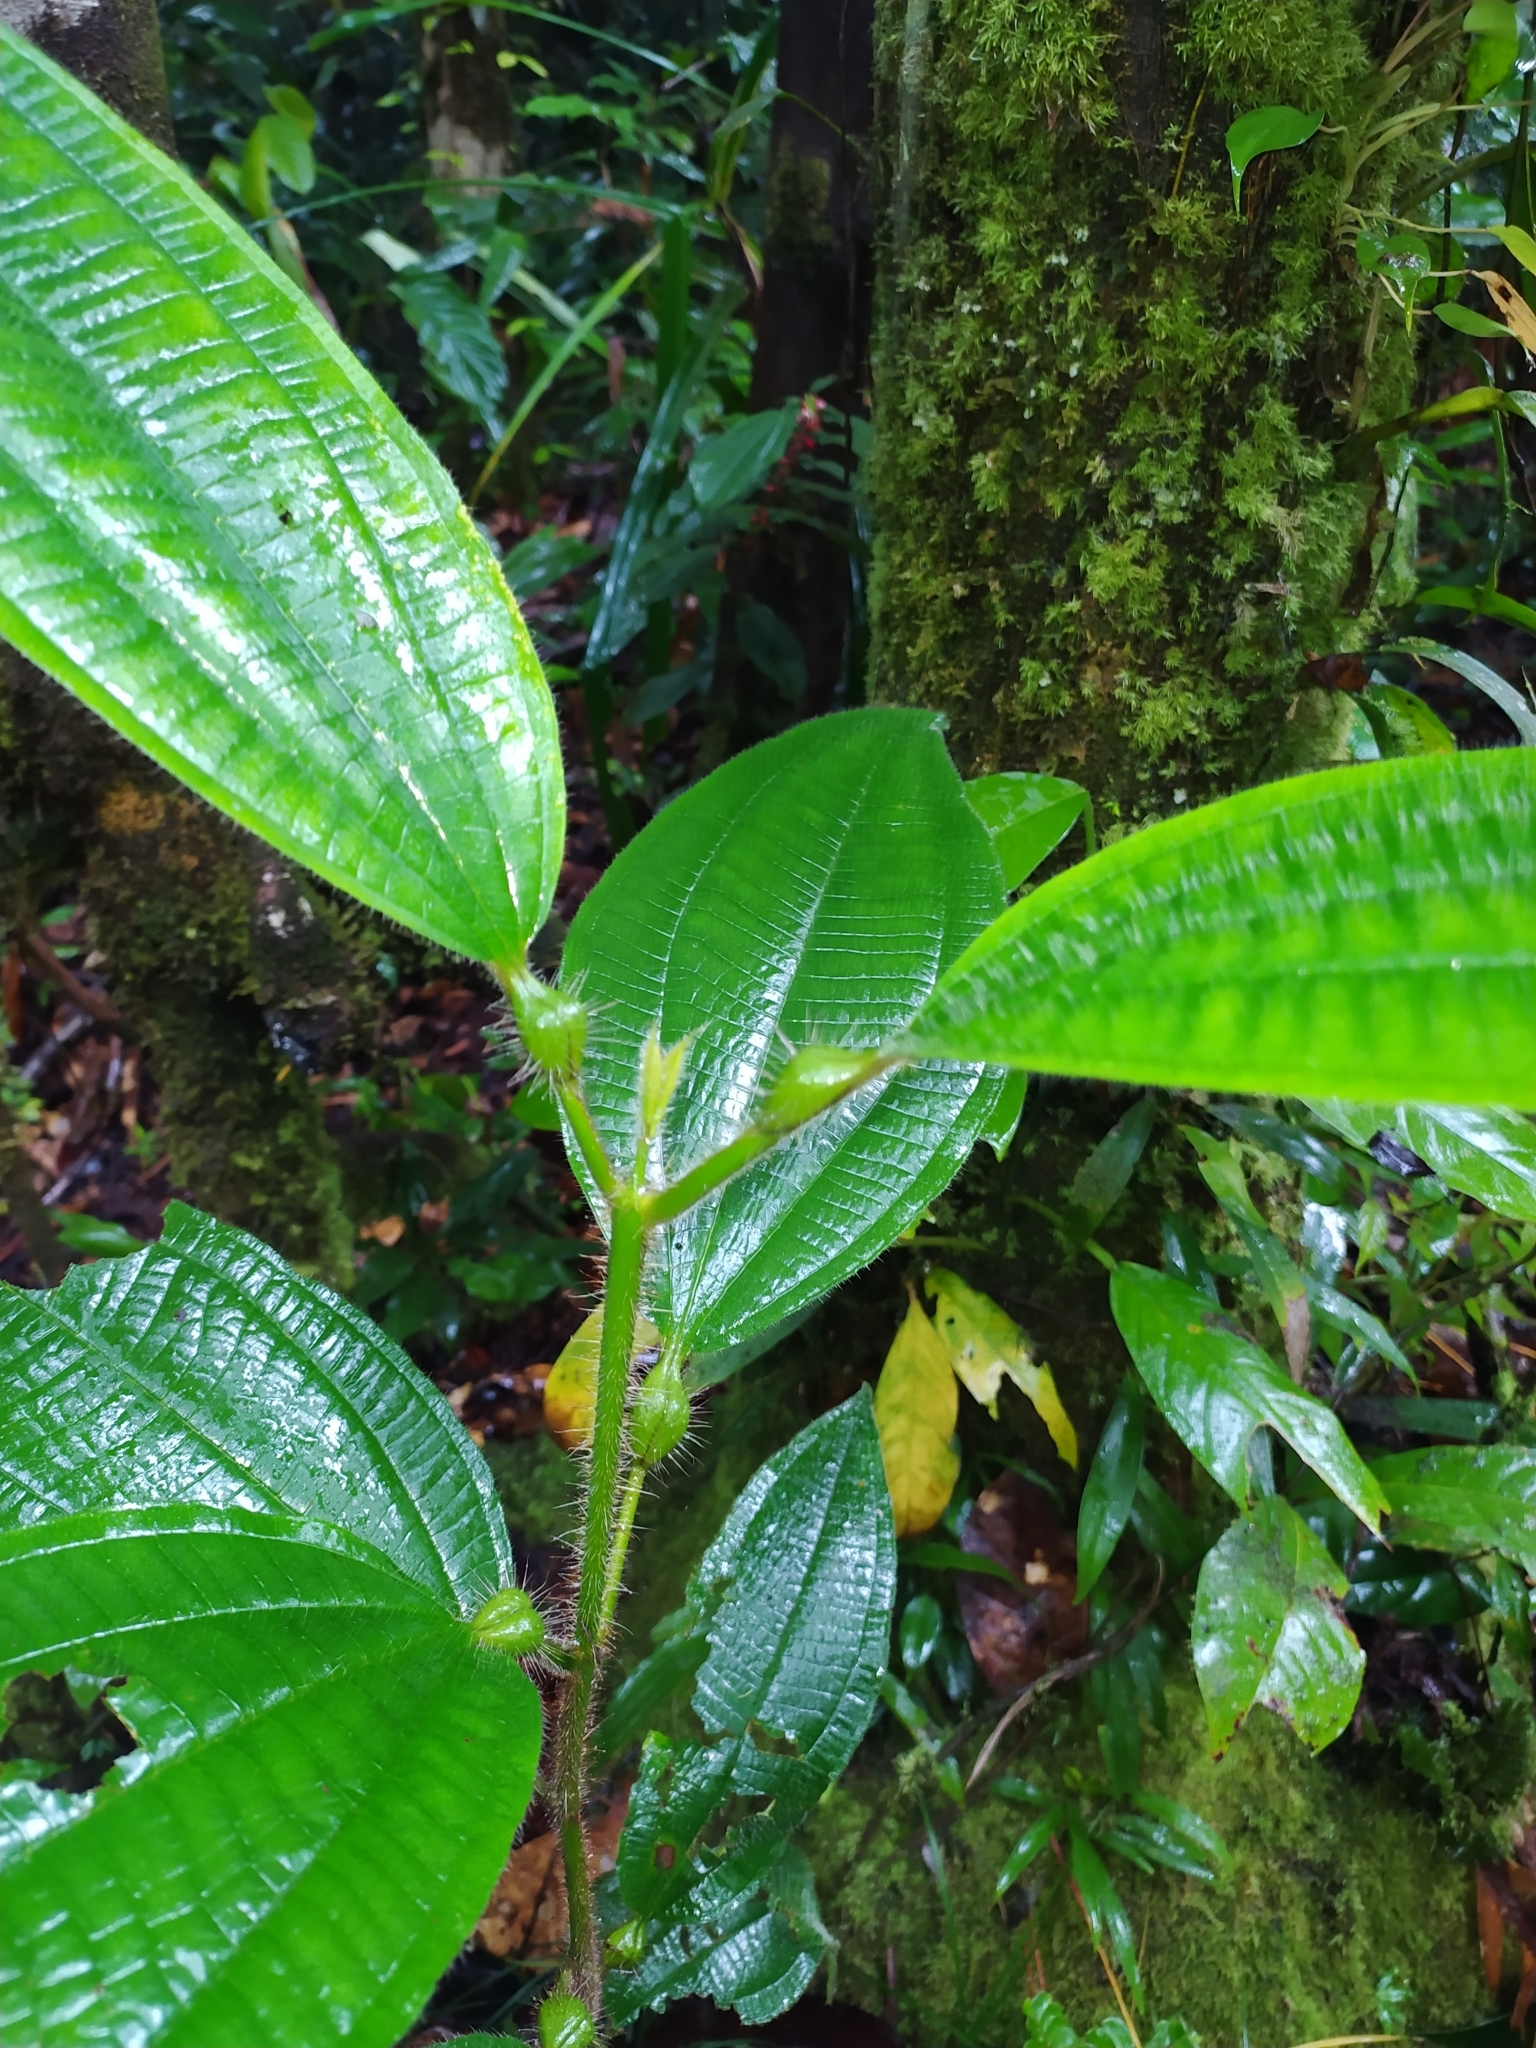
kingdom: Plantae
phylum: Tracheophyta
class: Magnoliopsida
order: Myrtales
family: Melastomataceae
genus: Miconia
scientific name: Miconia tococa
